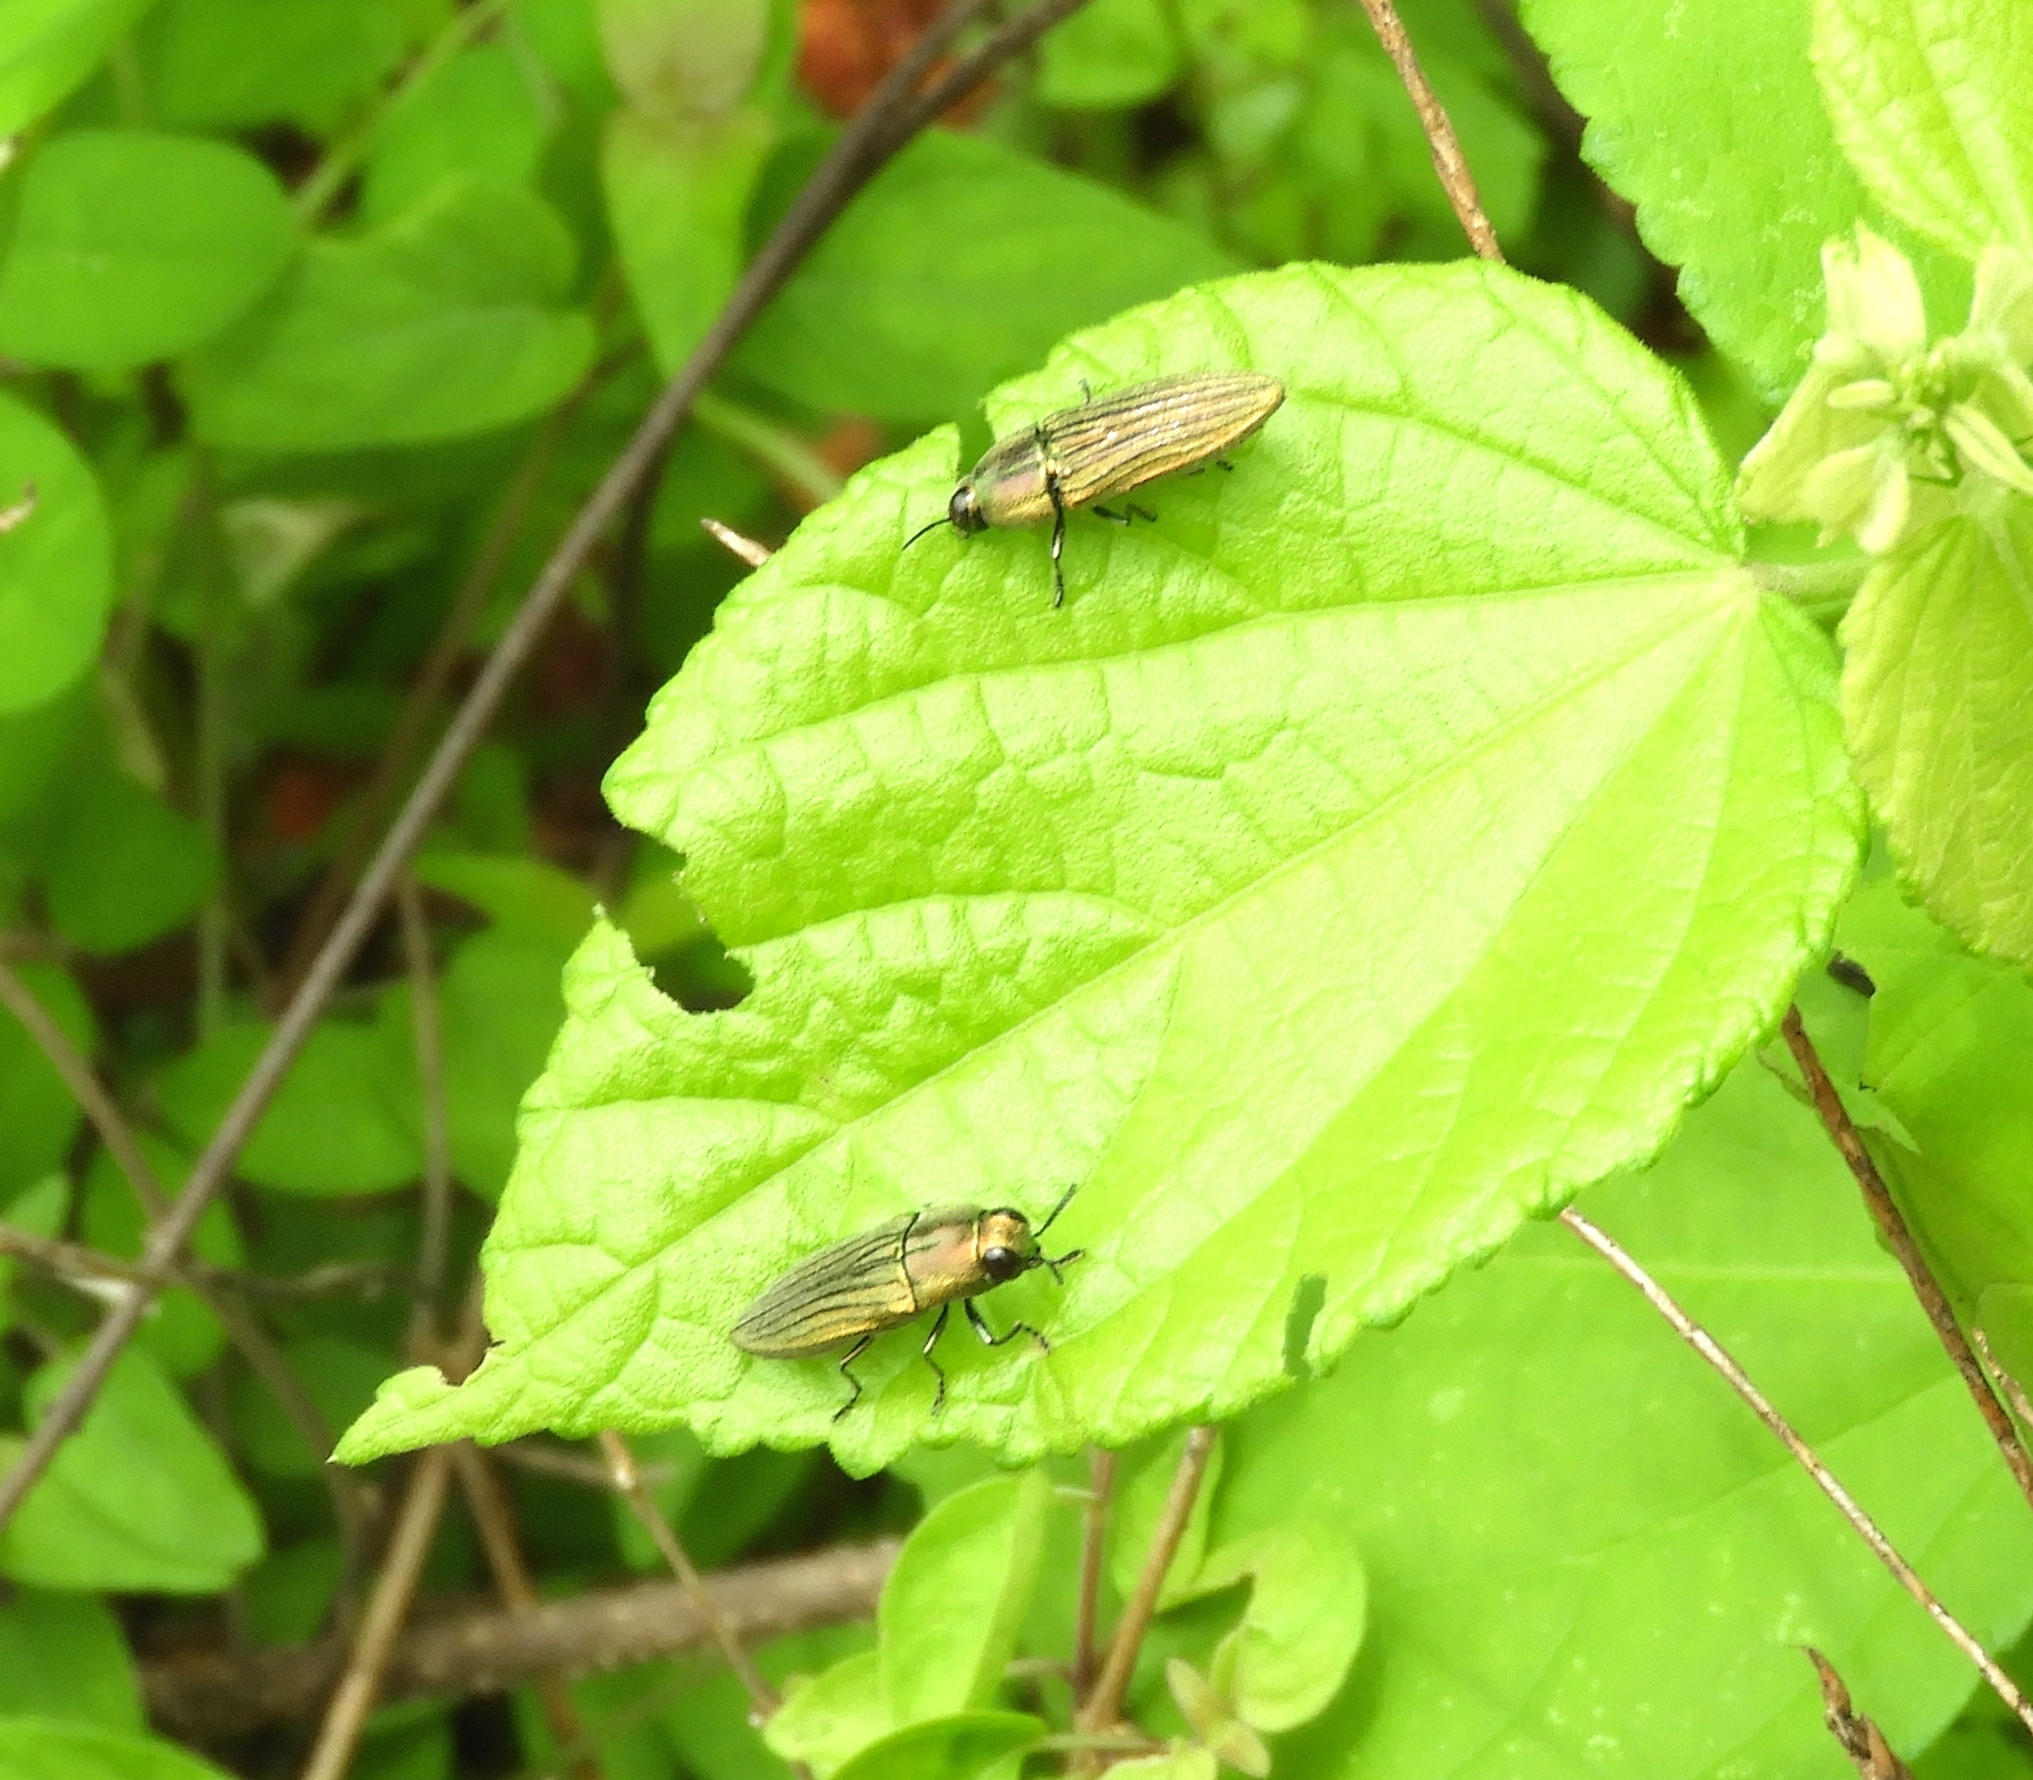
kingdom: Animalia
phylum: Arthropoda
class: Insecta
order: Coleoptera
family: Buprestidae
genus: Agaeocera
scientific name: Agaeocera scintillans
